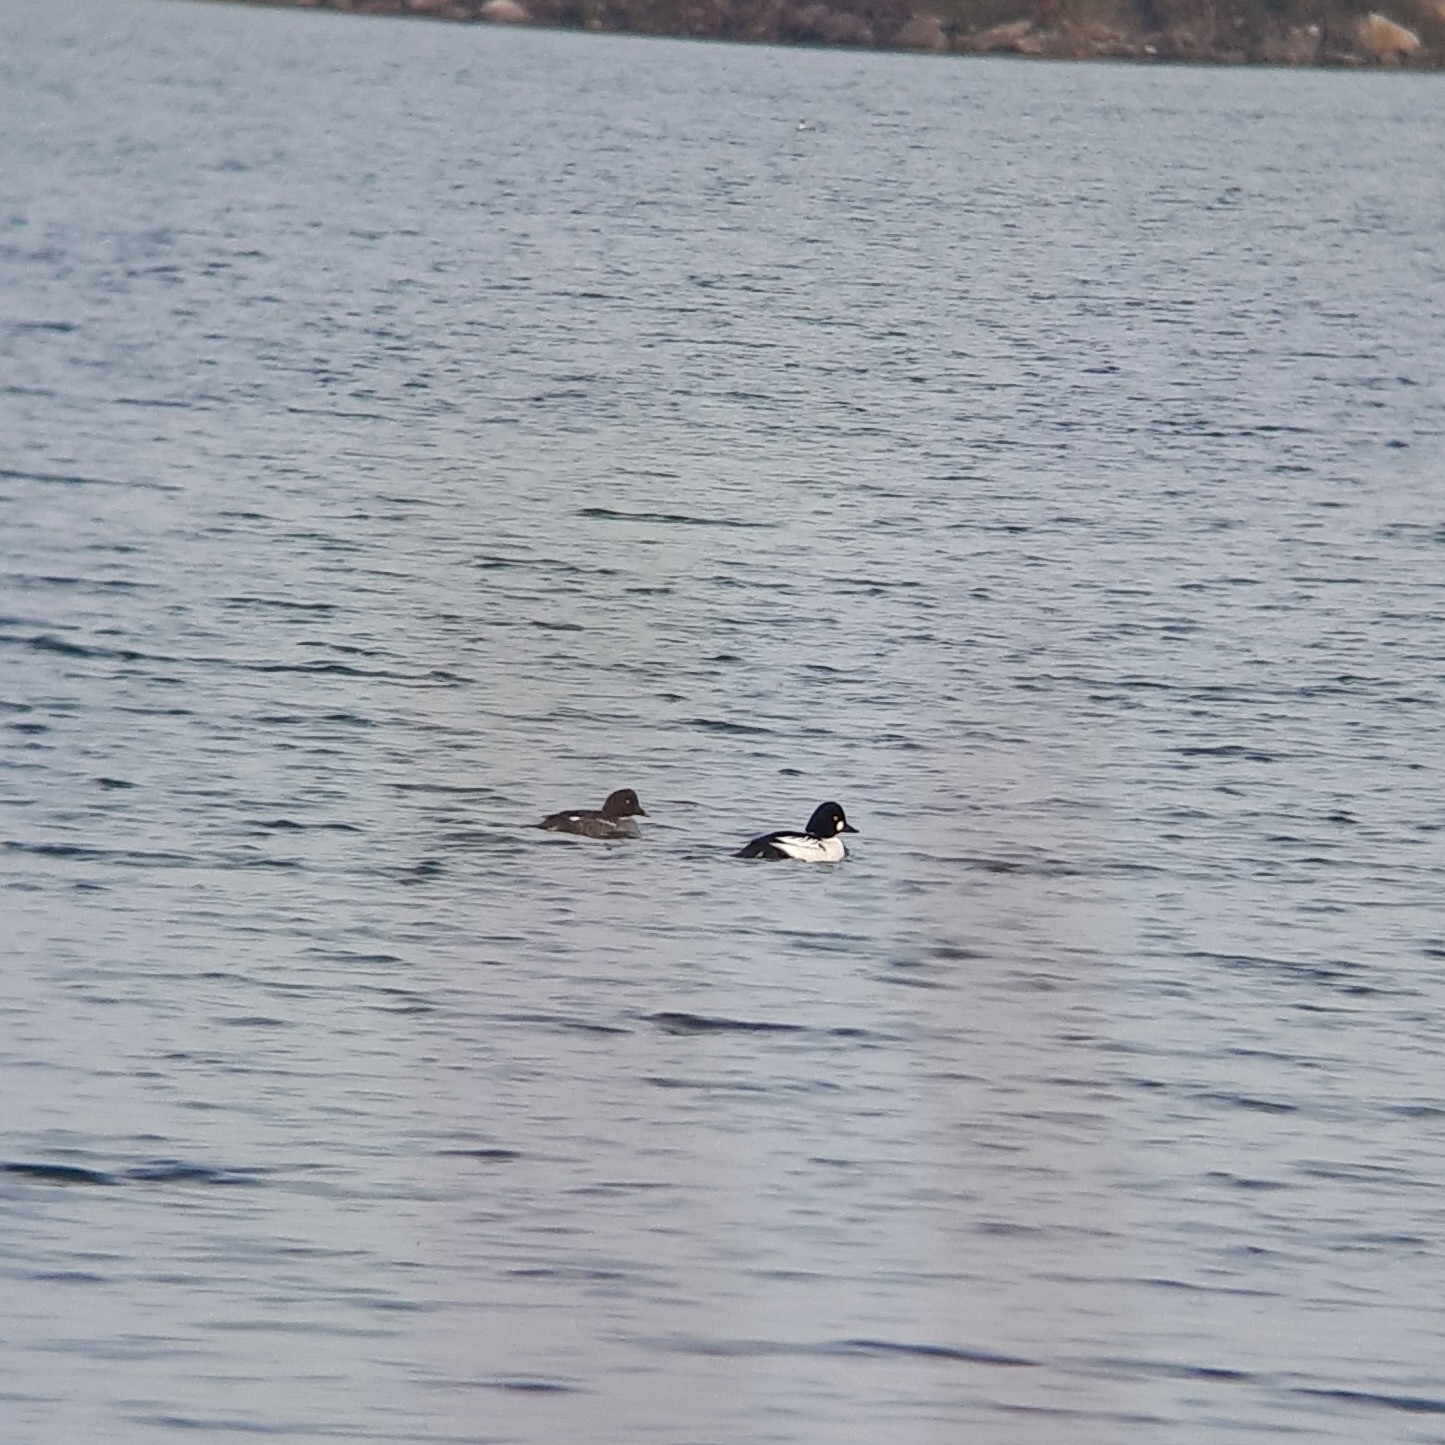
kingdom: Animalia
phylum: Chordata
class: Aves
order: Anseriformes
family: Anatidae
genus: Bucephala
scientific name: Bucephala clangula
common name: Common goldeneye
